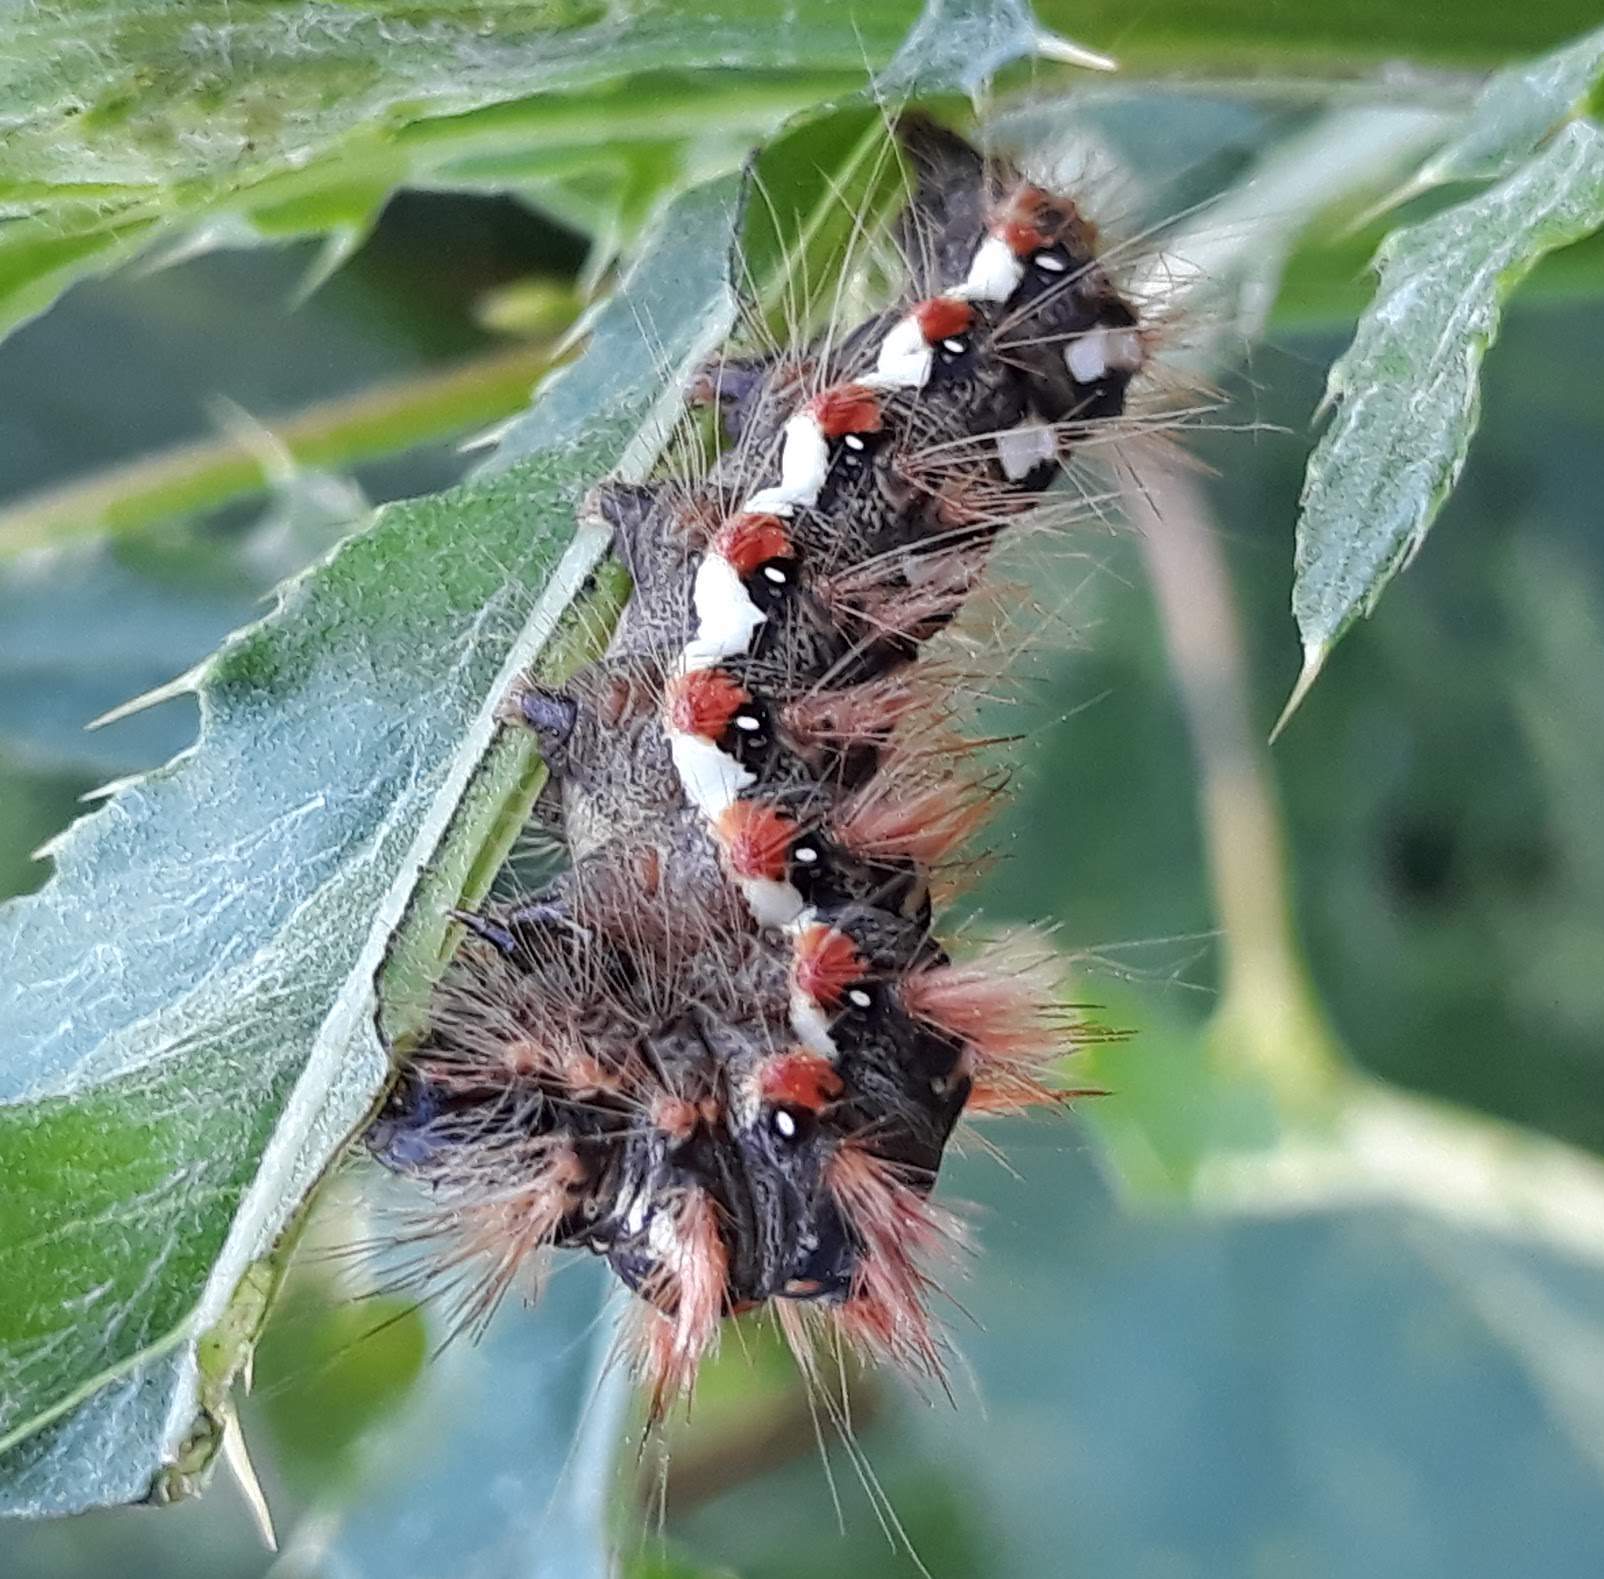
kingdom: Animalia
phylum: Arthropoda
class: Insecta
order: Lepidoptera
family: Noctuidae
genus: Acronicta
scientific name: Acronicta rumicis
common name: Knot grass
